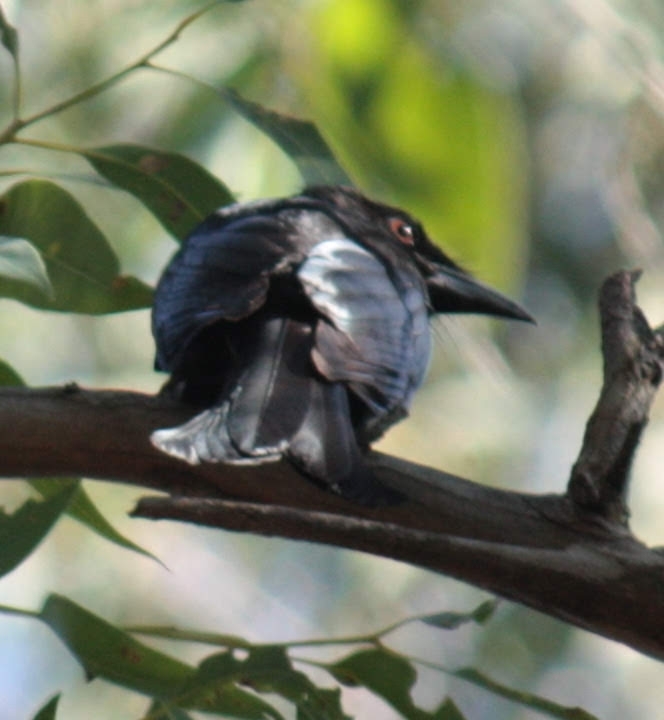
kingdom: Animalia
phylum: Chordata
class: Aves
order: Passeriformes
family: Dicruridae
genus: Dicrurus
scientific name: Dicrurus bracteatus
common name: Spangled drongo
